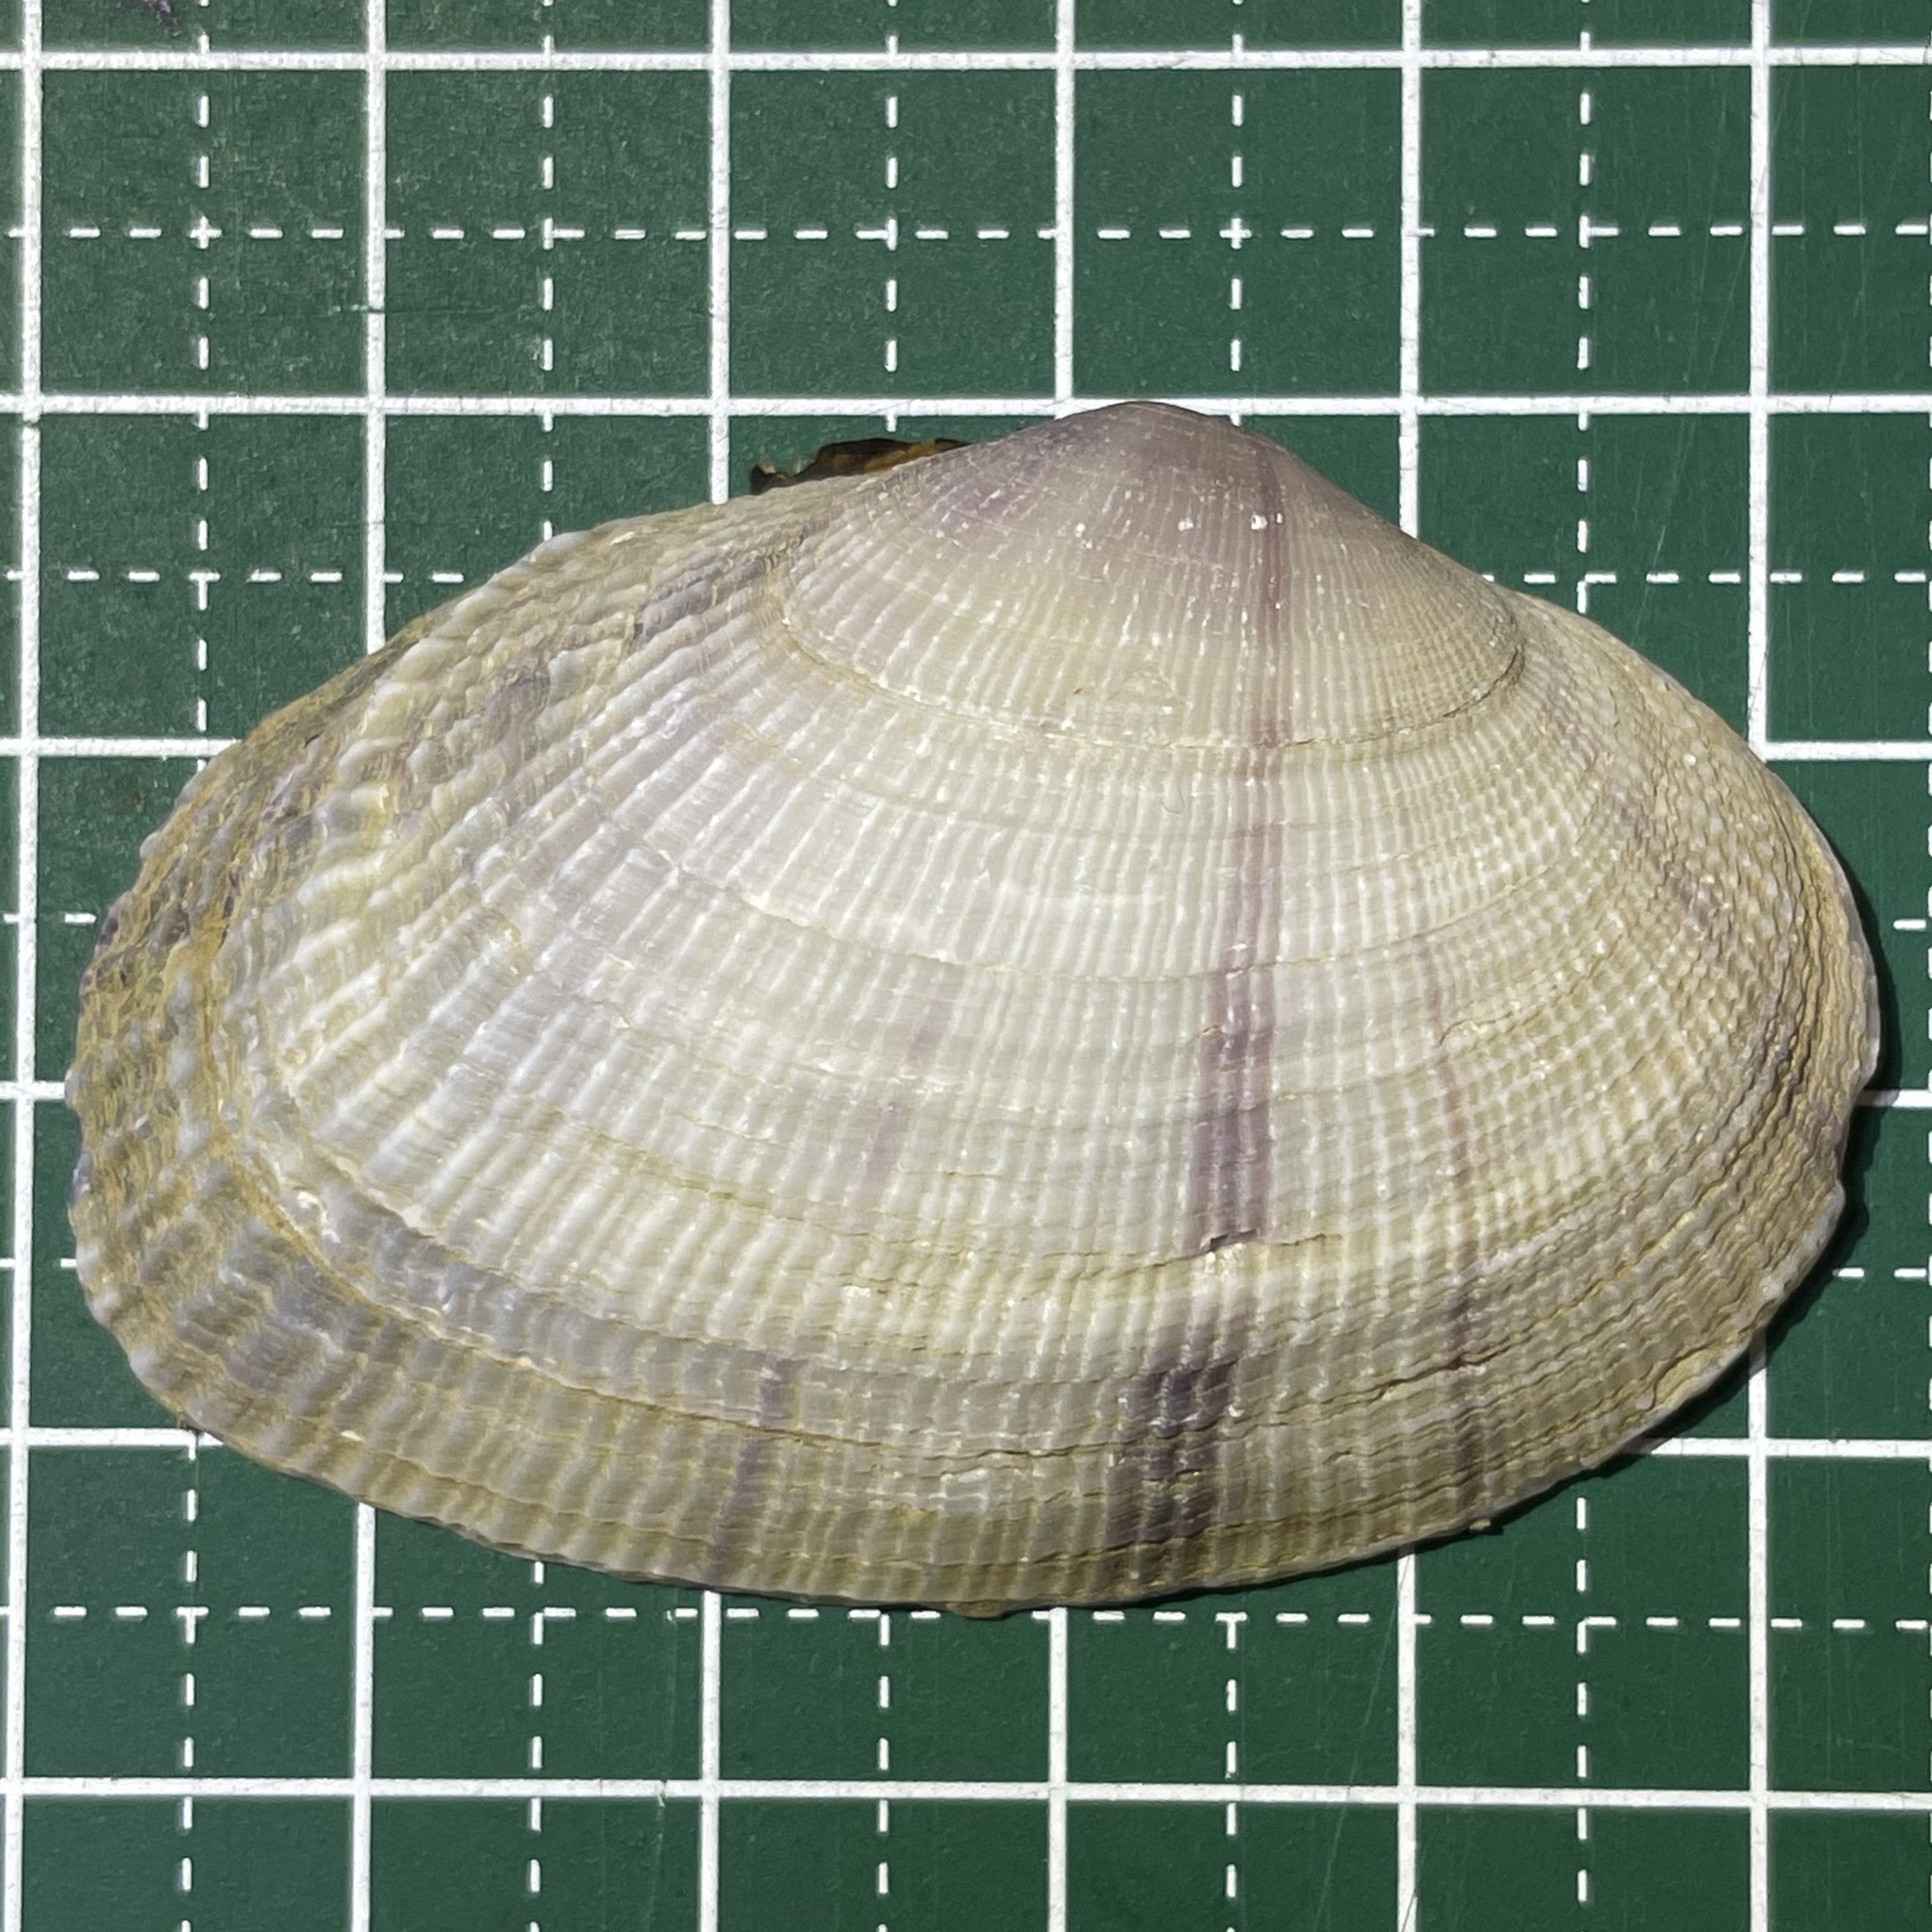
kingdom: Animalia
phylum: Mollusca
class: Bivalvia
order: Cardiida
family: Psammobiidae
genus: Asaphis
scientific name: Asaphis violascens
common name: Pacific asaphis
